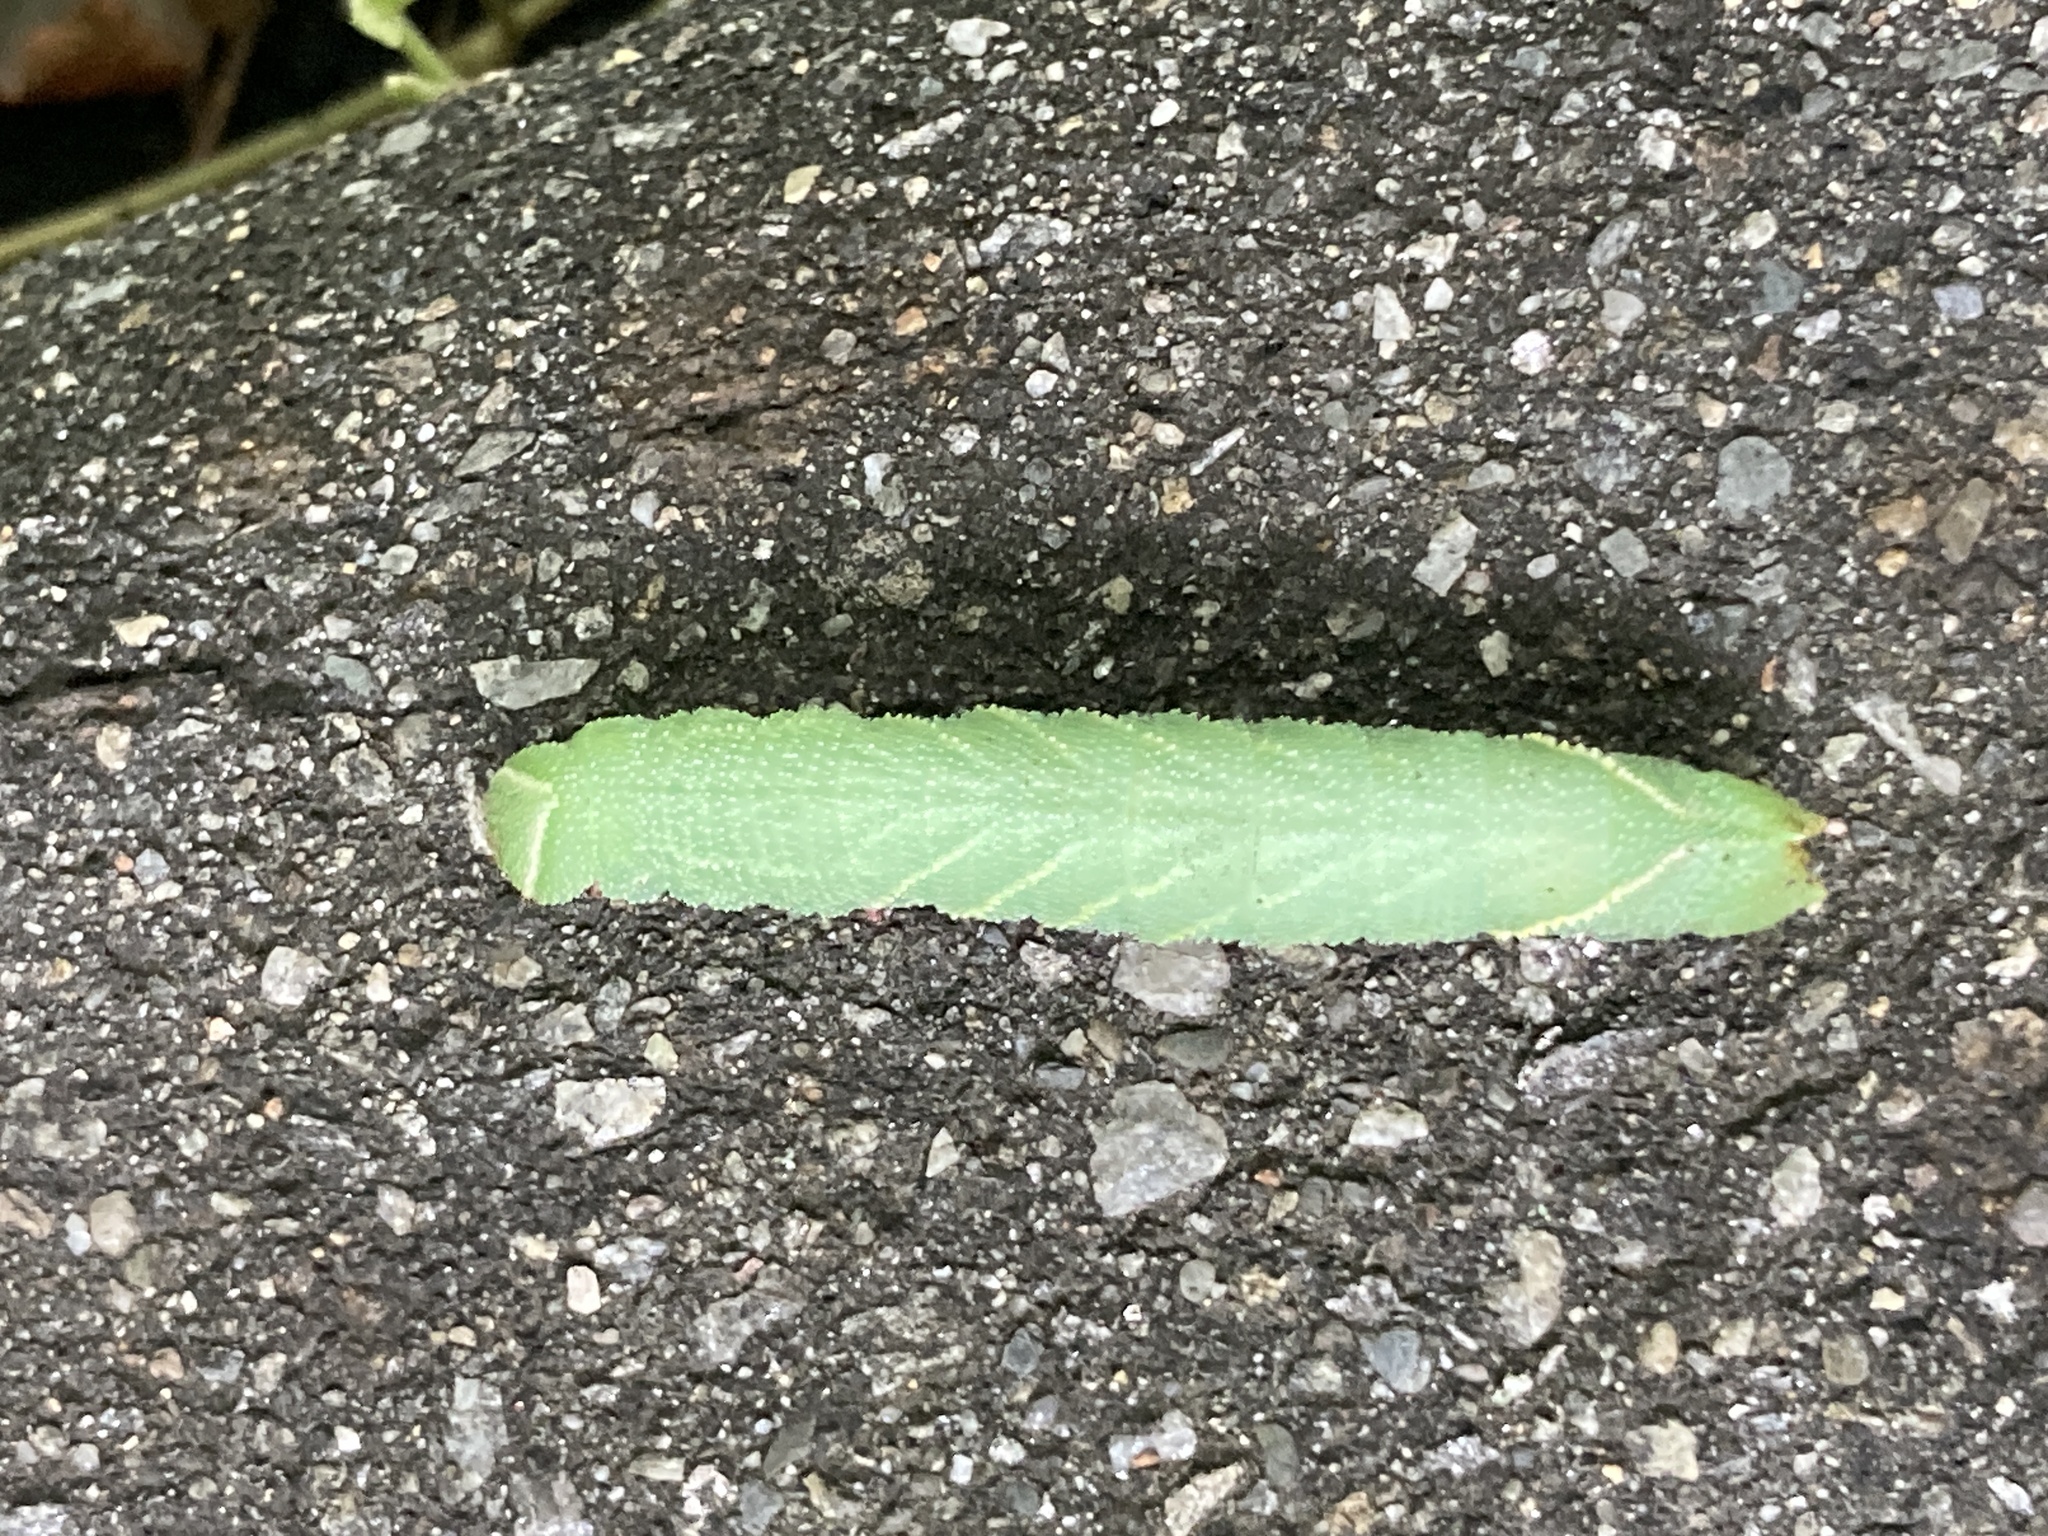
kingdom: Animalia
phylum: Arthropoda
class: Insecta
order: Lepidoptera
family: Sphingidae
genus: Paonias
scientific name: Paonias excaecata
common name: Blind-eyed sphinx
